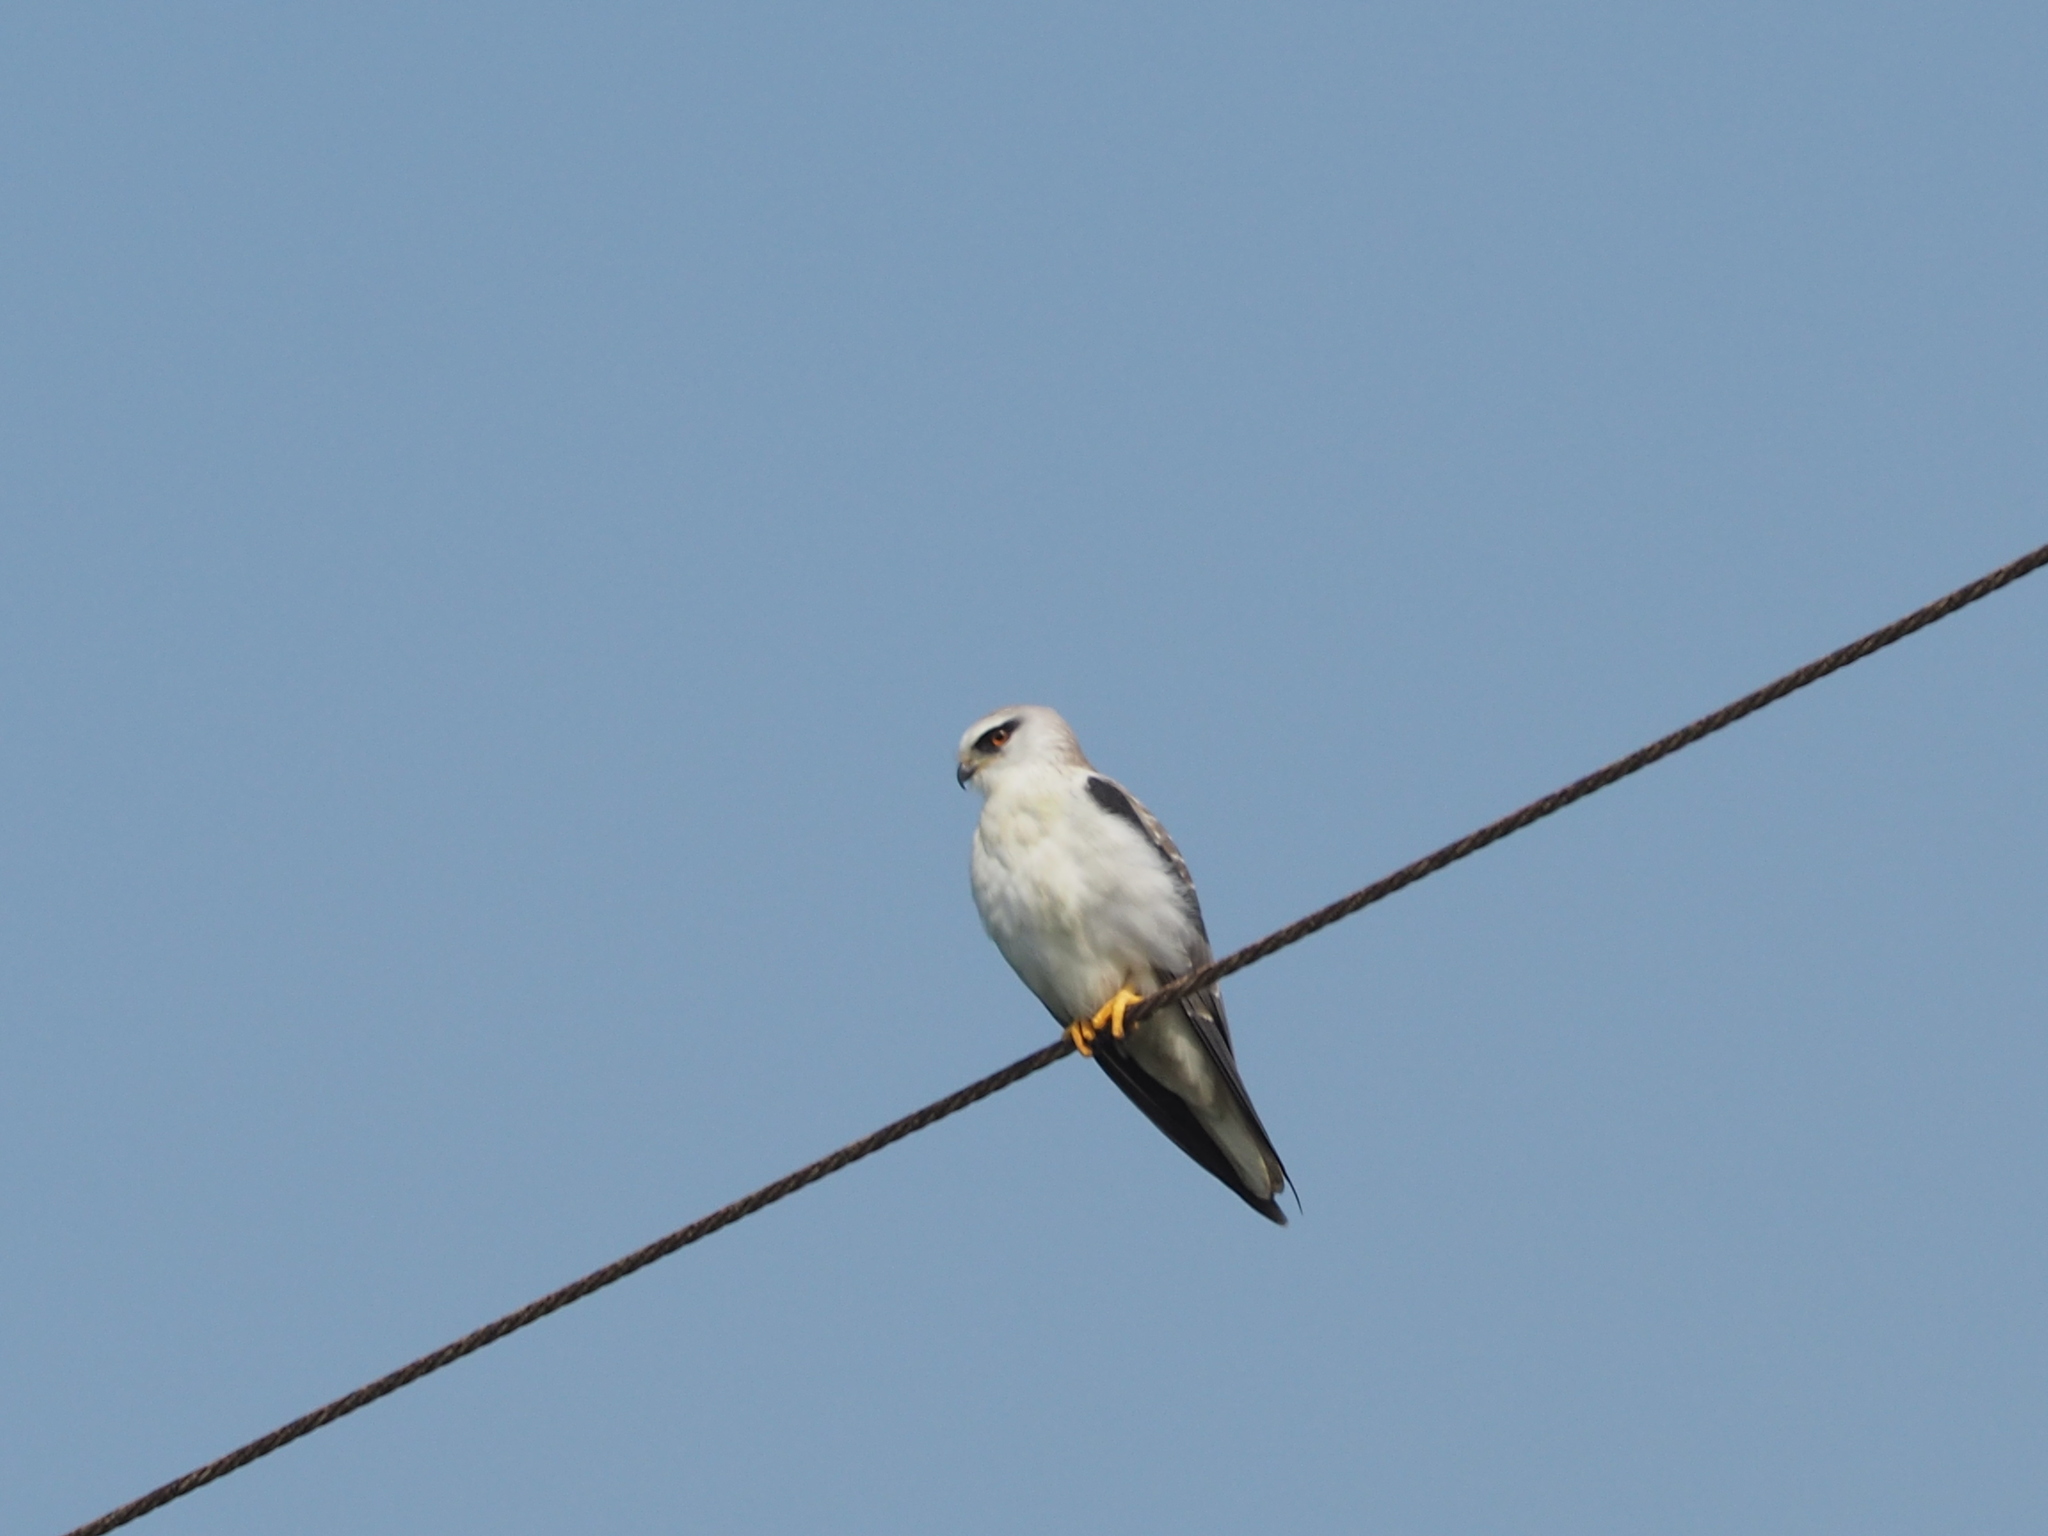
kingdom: Animalia
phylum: Chordata
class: Aves
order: Accipitriformes
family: Accipitridae
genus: Elanus
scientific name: Elanus caeruleus
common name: Black-winged kite
